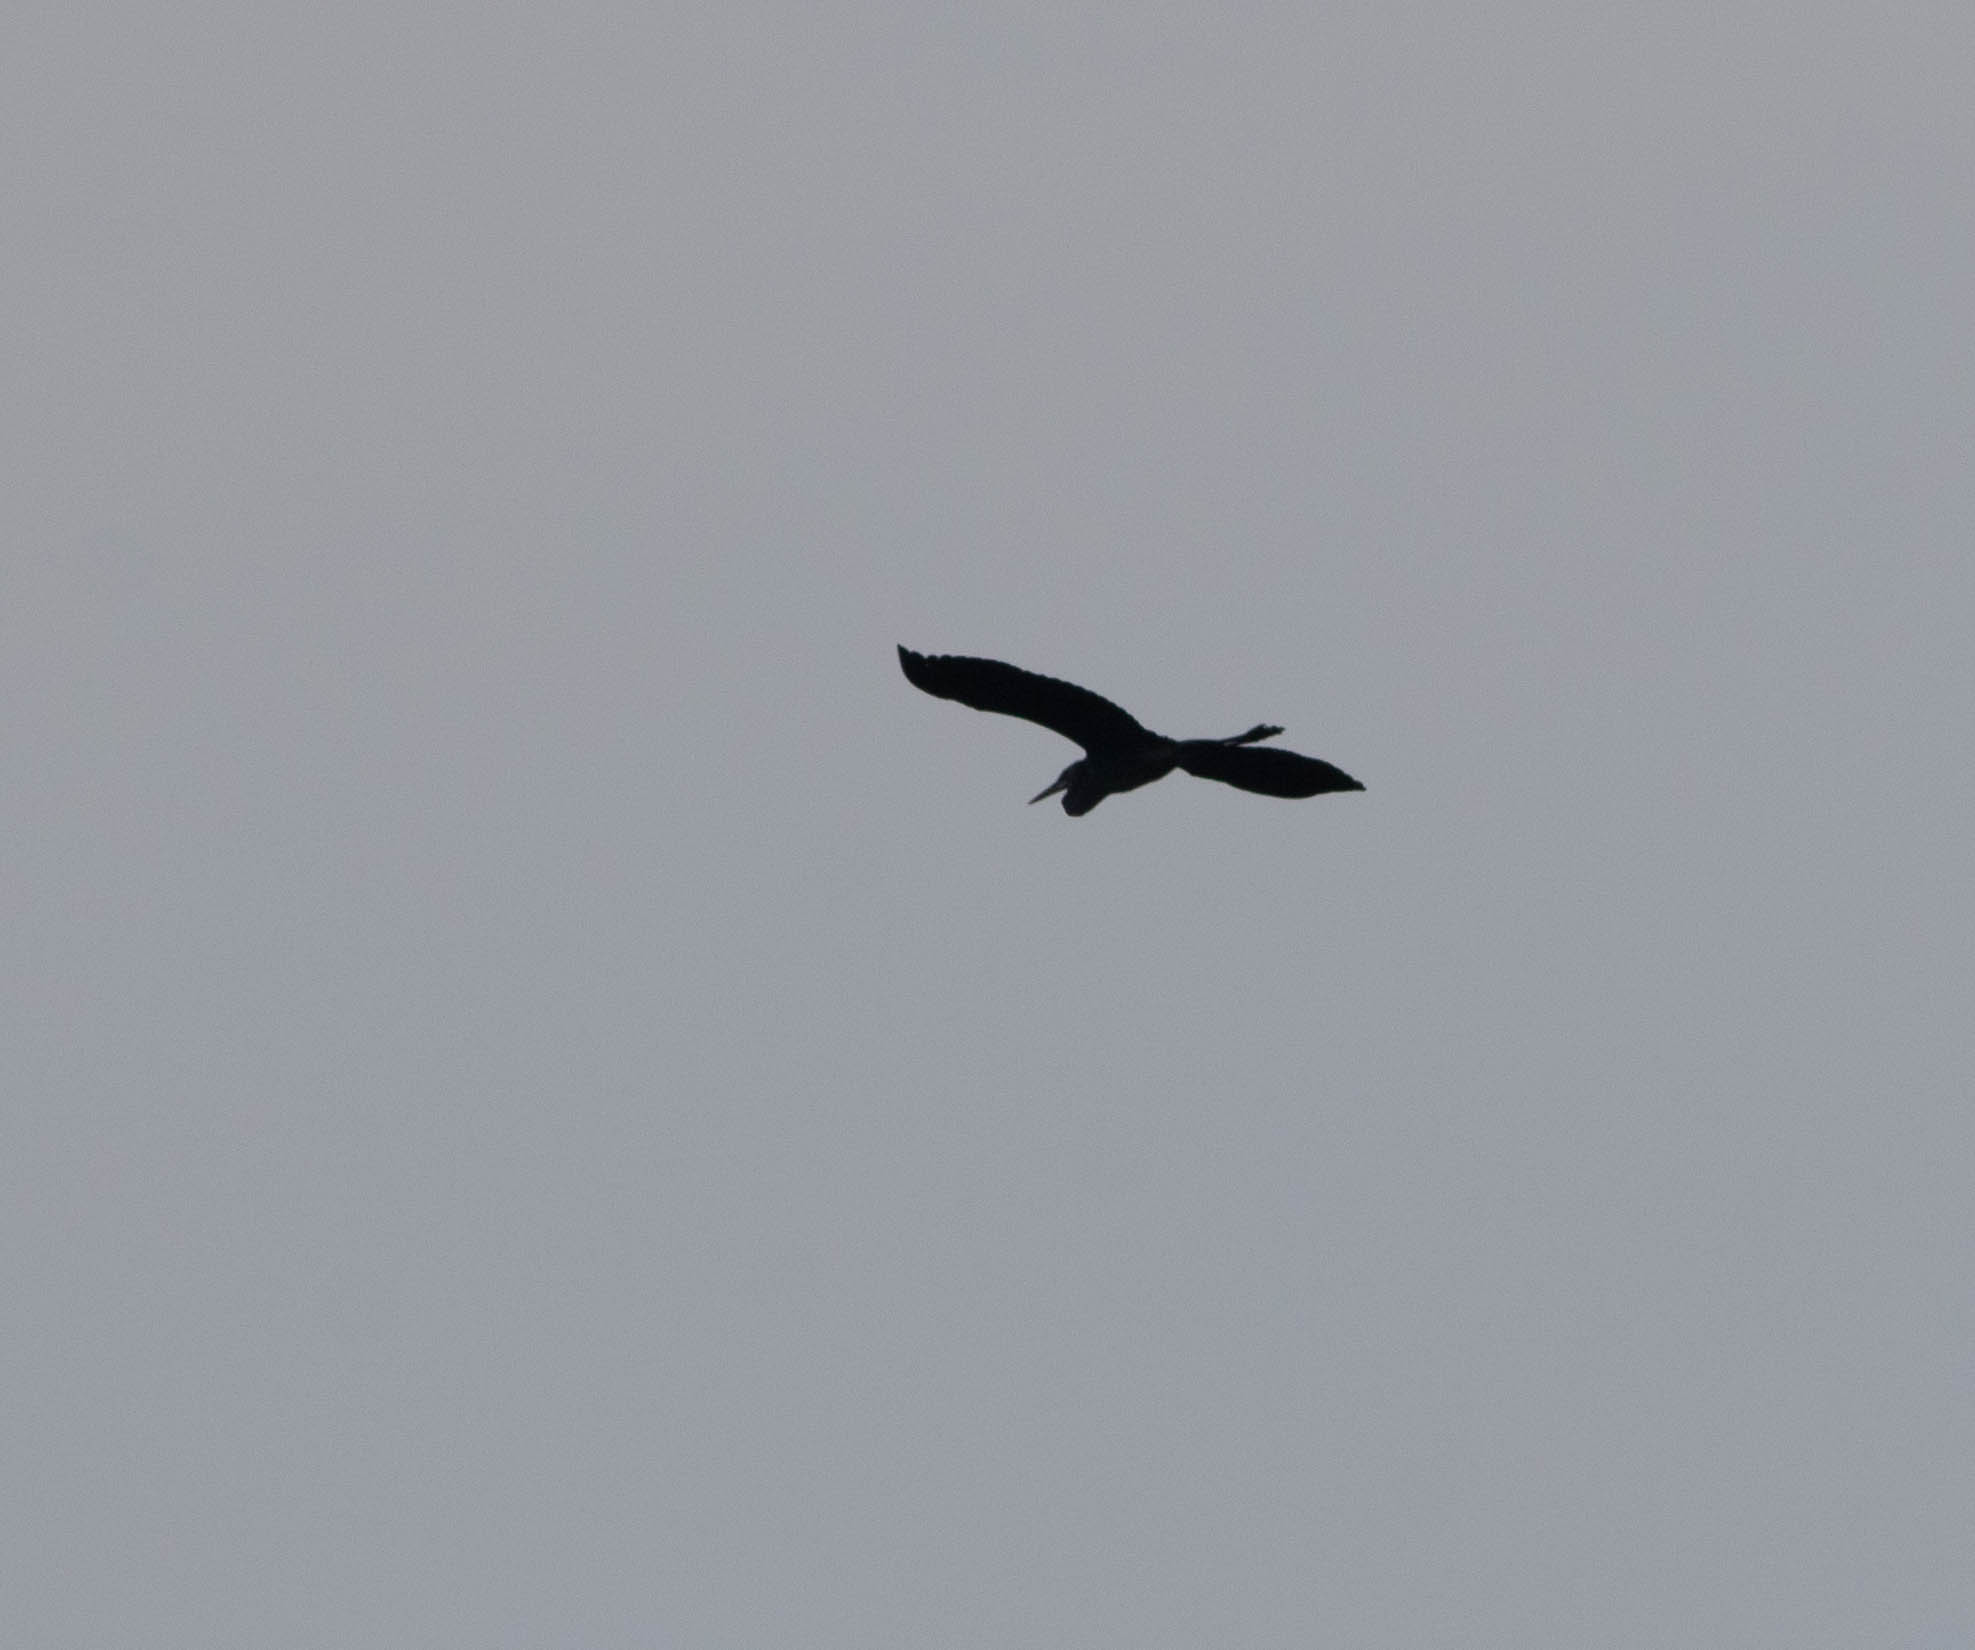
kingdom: Animalia
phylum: Chordata
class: Aves
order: Pelecaniformes
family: Ardeidae
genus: Ardea
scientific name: Ardea herodias
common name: Great blue heron
